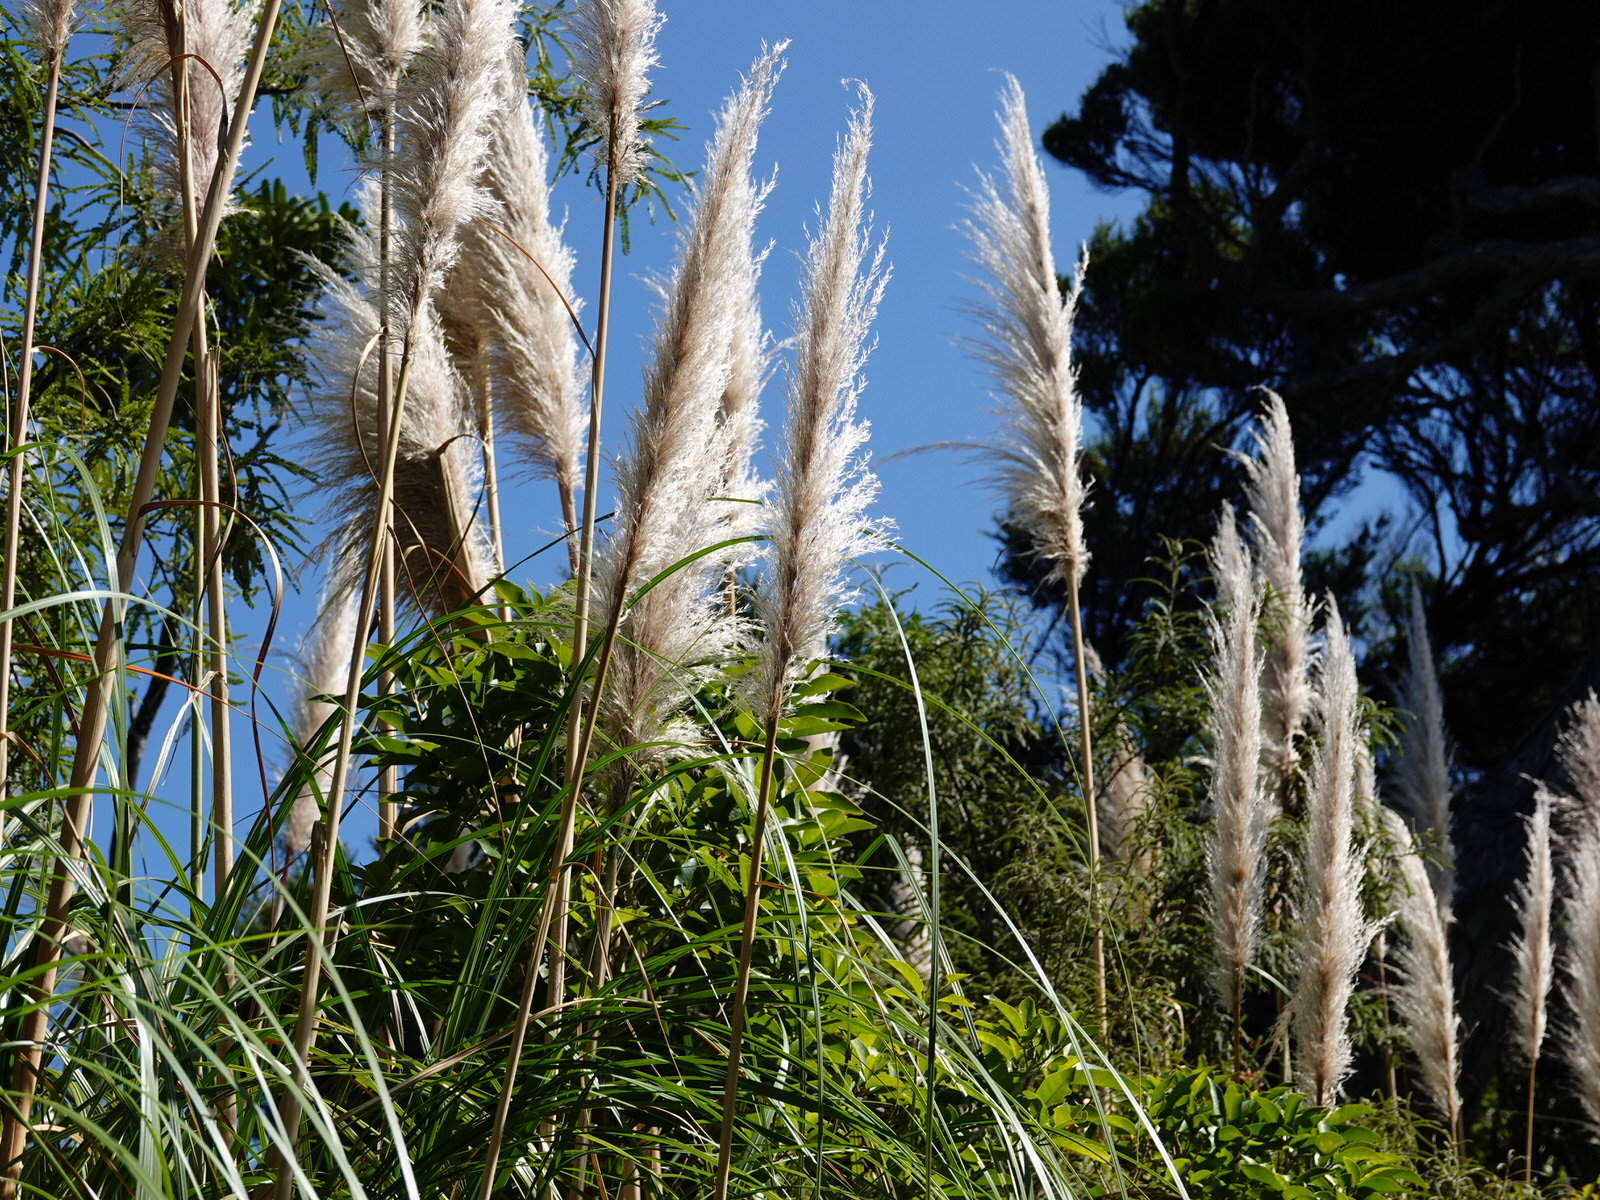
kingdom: Plantae
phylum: Tracheophyta
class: Liliopsida
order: Poales
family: Poaceae
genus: Cortaderia
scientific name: Cortaderia selloana
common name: Uruguayan pampas grass
